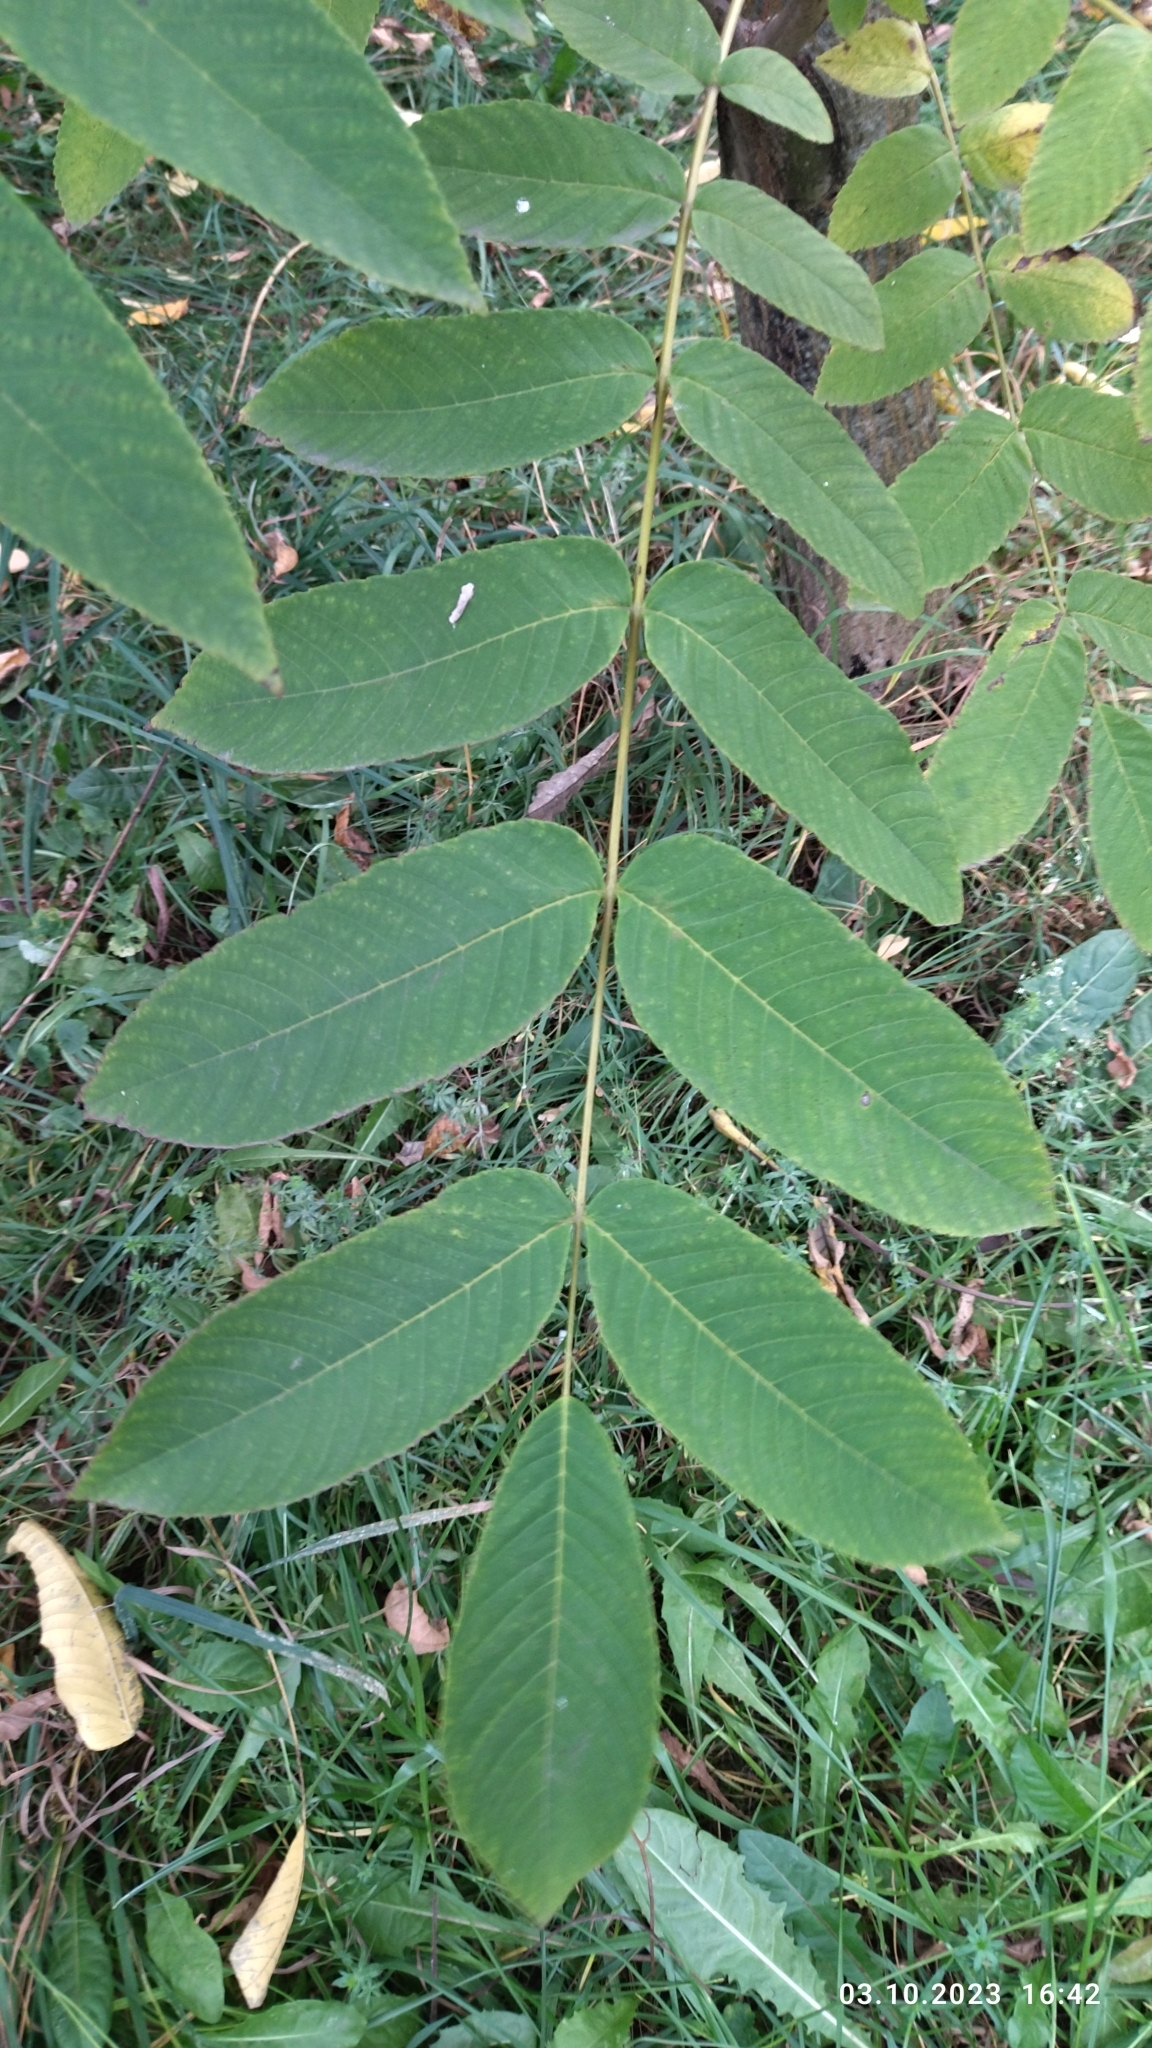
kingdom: Plantae
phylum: Tracheophyta
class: Magnoliopsida
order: Fagales
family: Juglandaceae
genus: Juglans
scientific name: Juglans mandshurica
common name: Manchurian walnut
